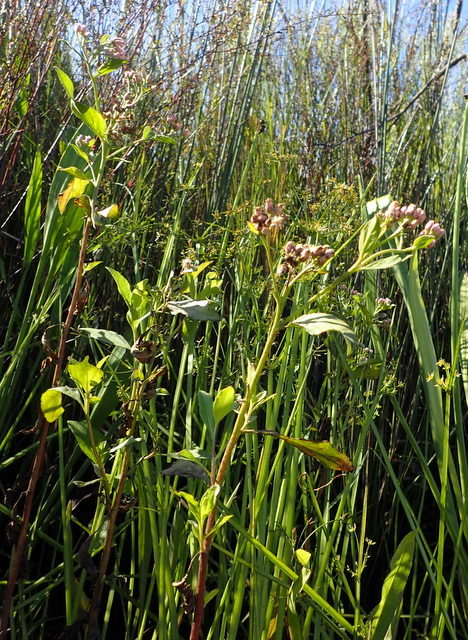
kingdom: Plantae
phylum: Tracheophyta
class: Magnoliopsida
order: Asterales
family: Asteraceae
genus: Pluchea
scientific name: Pluchea odorata
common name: Saltmarsh fleabane
